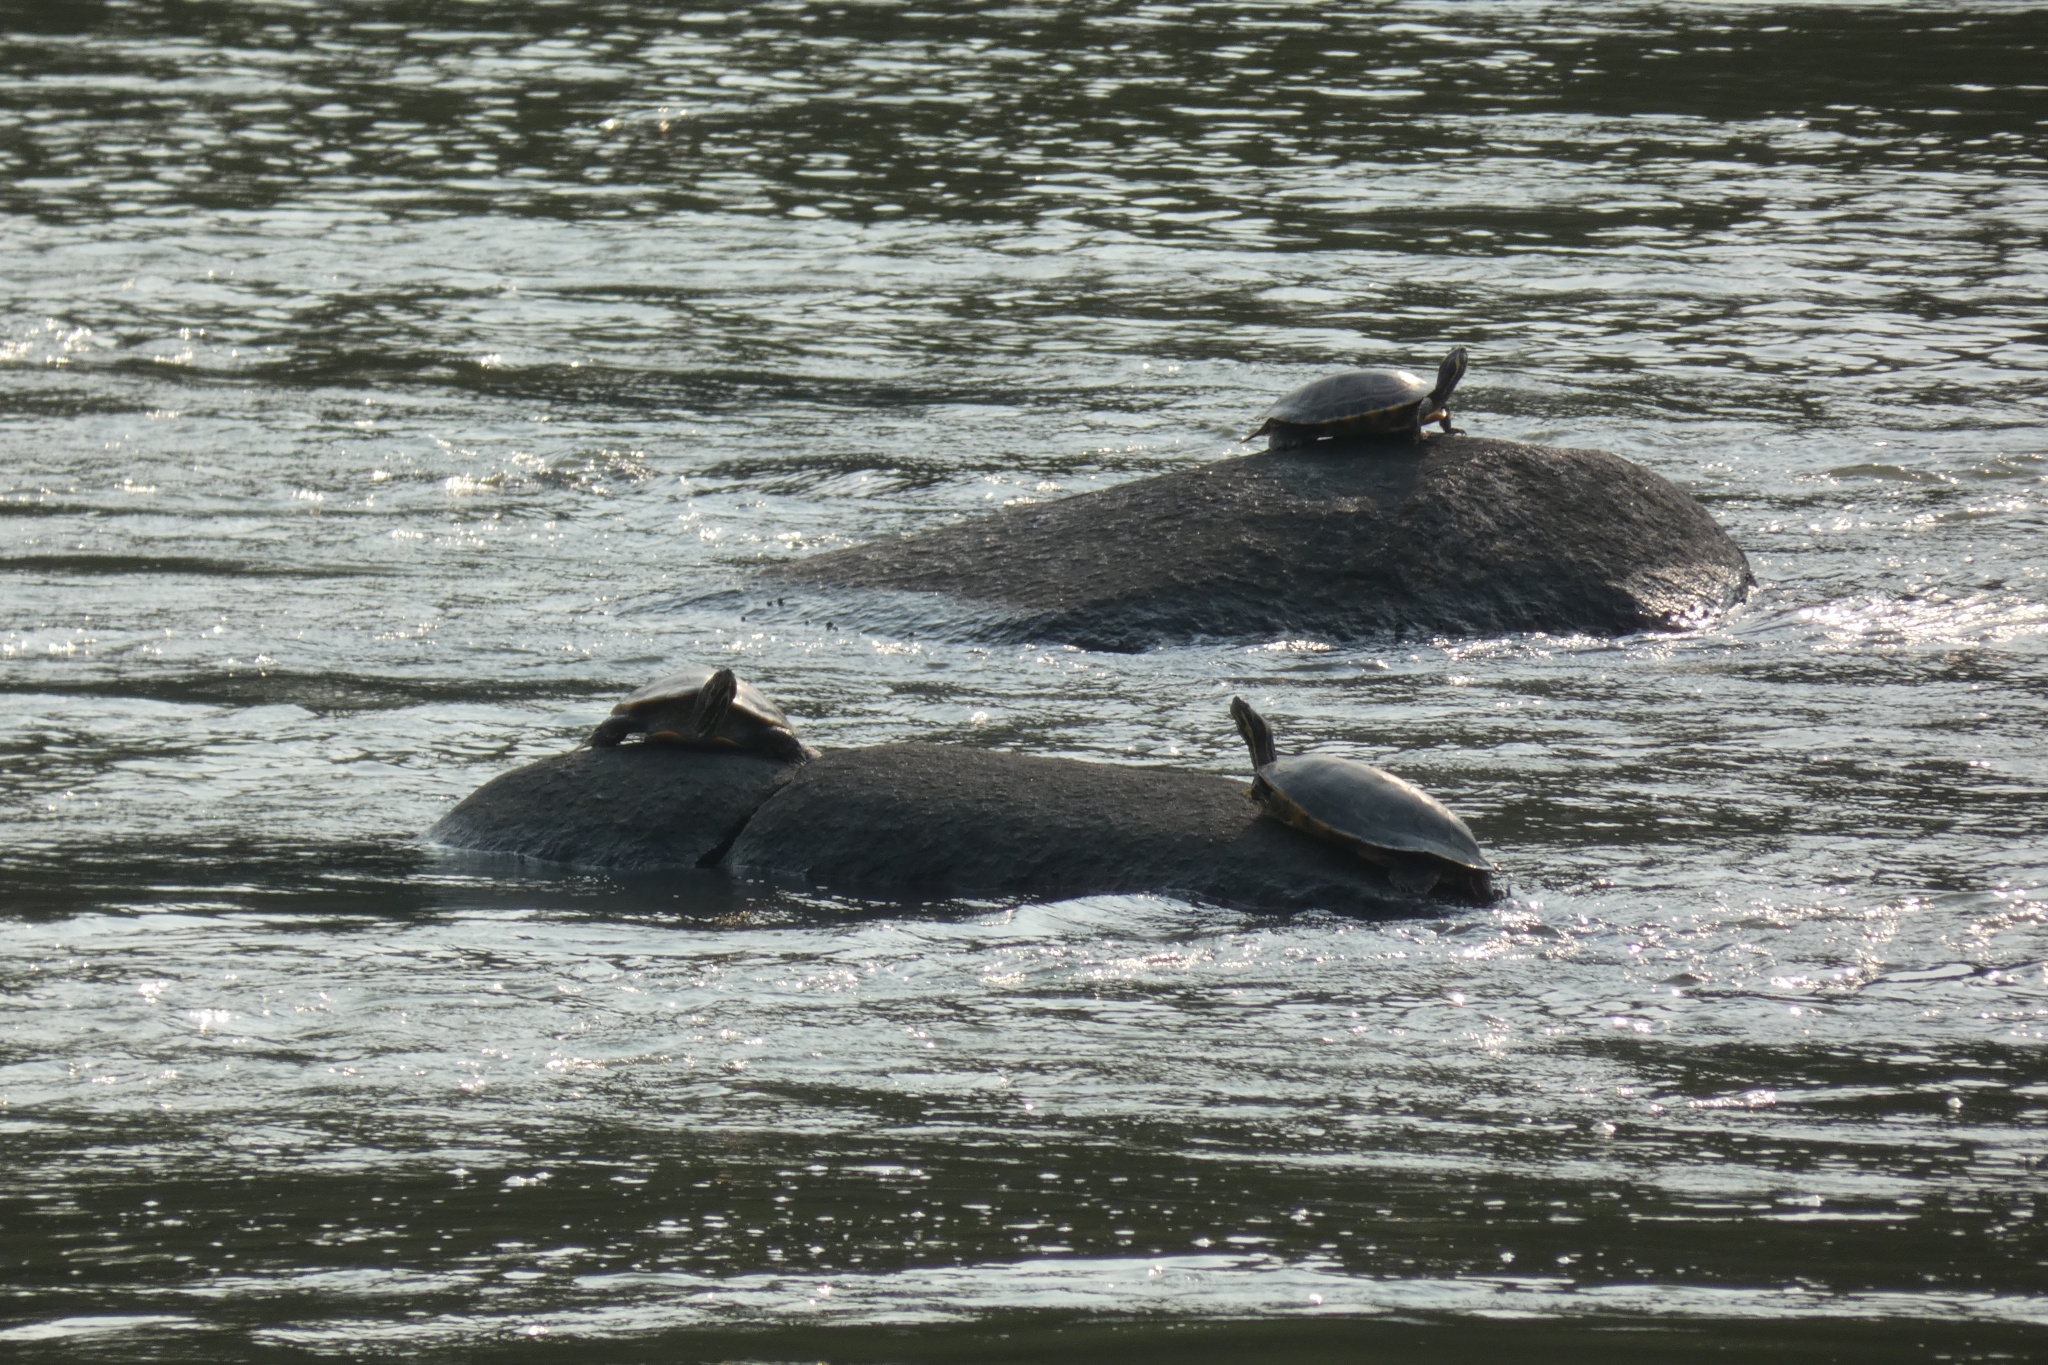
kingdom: Animalia
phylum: Chordata
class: Testudines
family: Emydidae
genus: Pseudemys
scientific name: Pseudemys concinna
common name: Eastern river cooter
